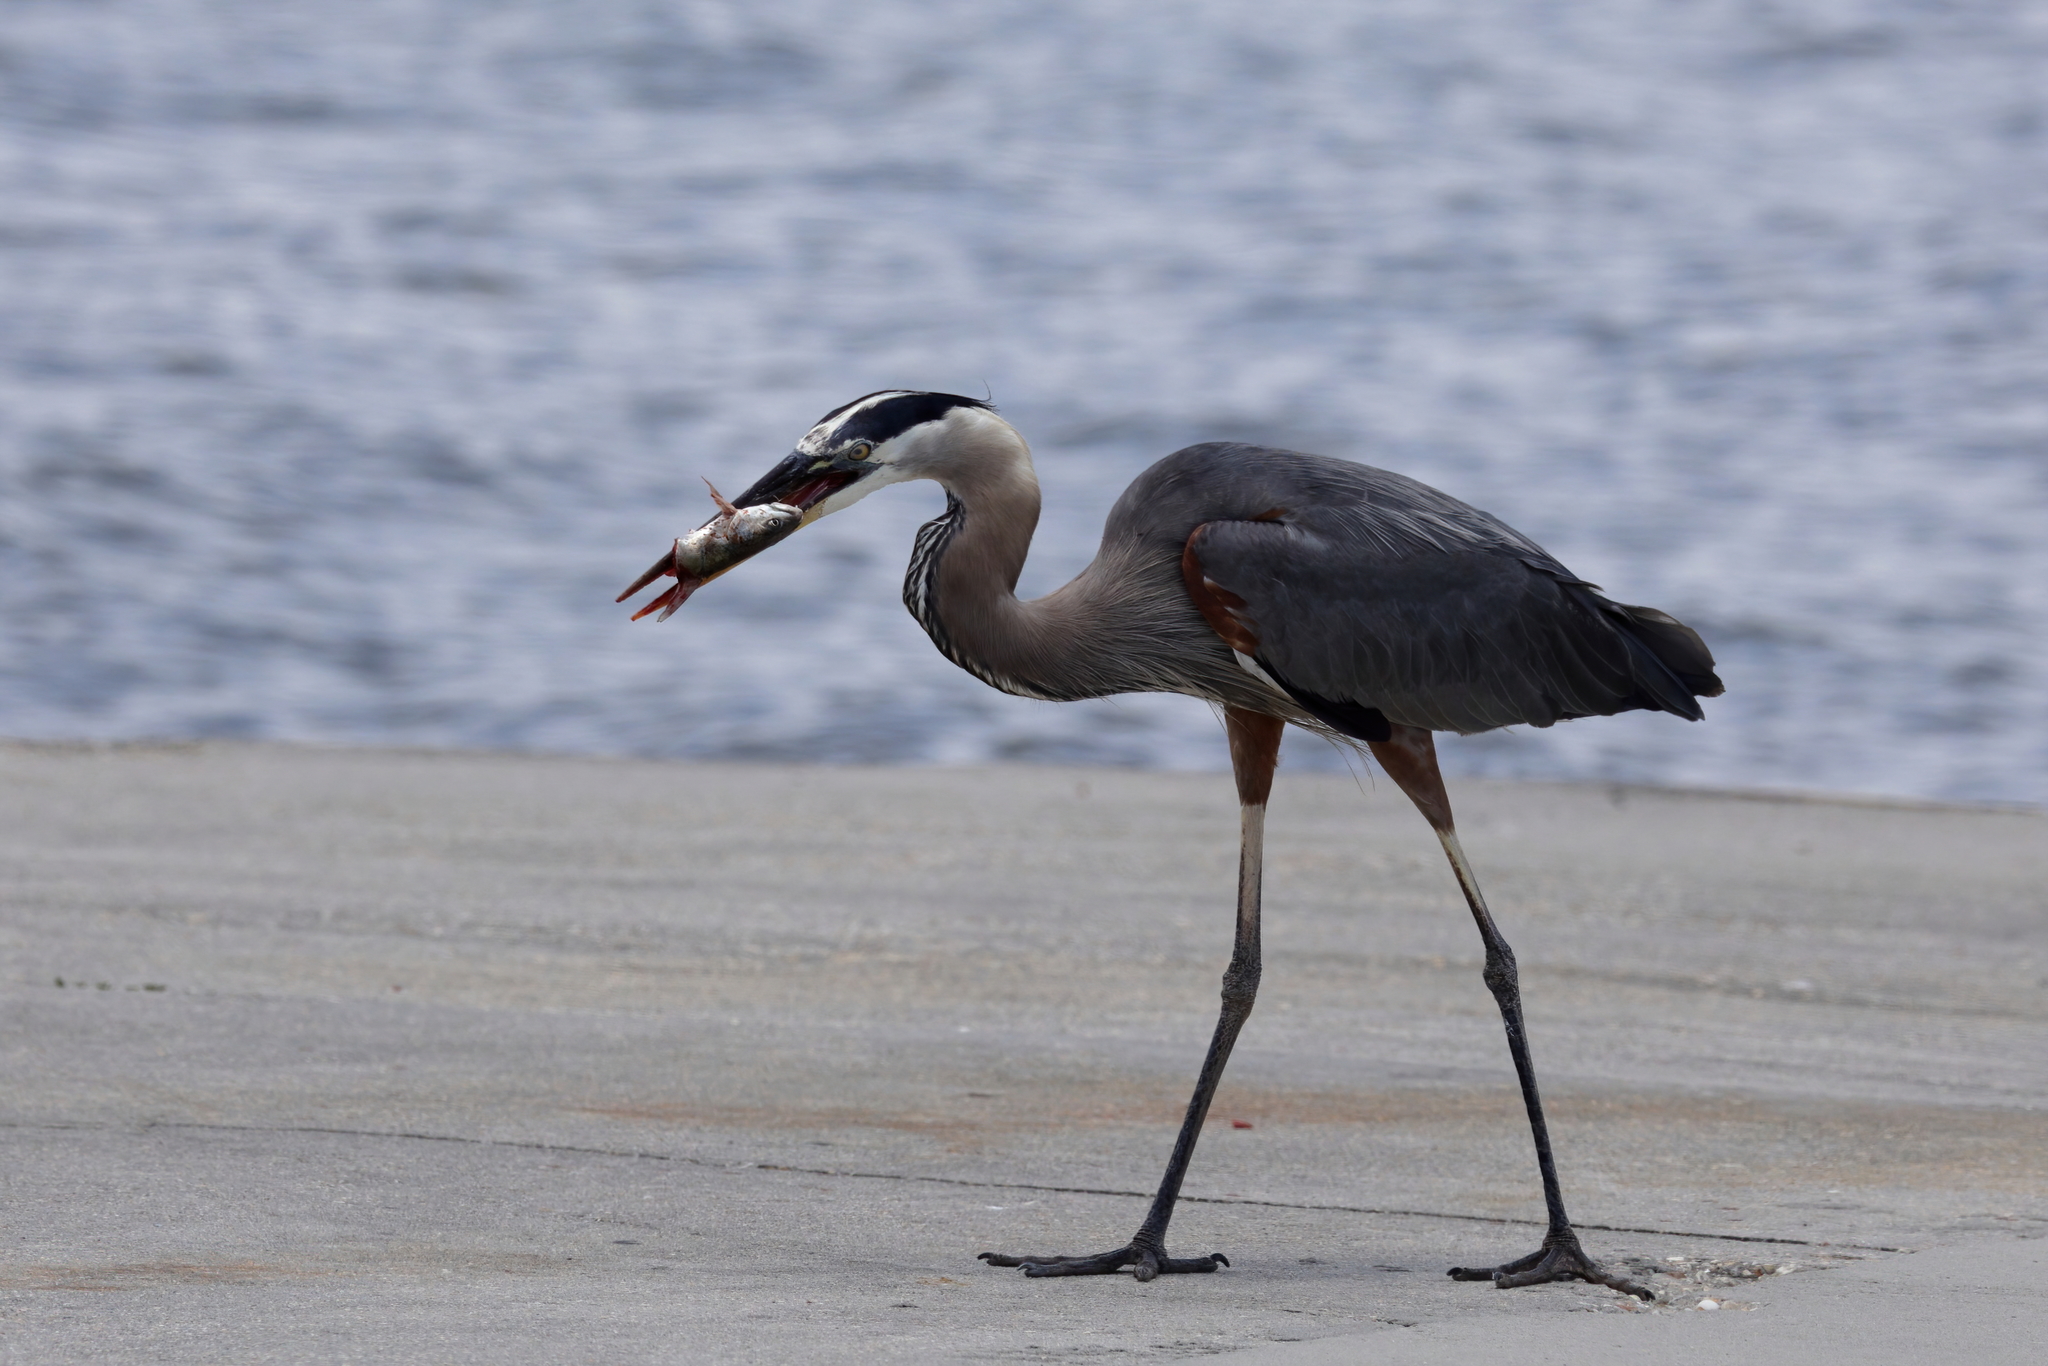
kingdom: Animalia
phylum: Chordata
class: Aves
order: Pelecaniformes
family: Ardeidae
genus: Ardea
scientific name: Ardea herodias
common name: Great blue heron
